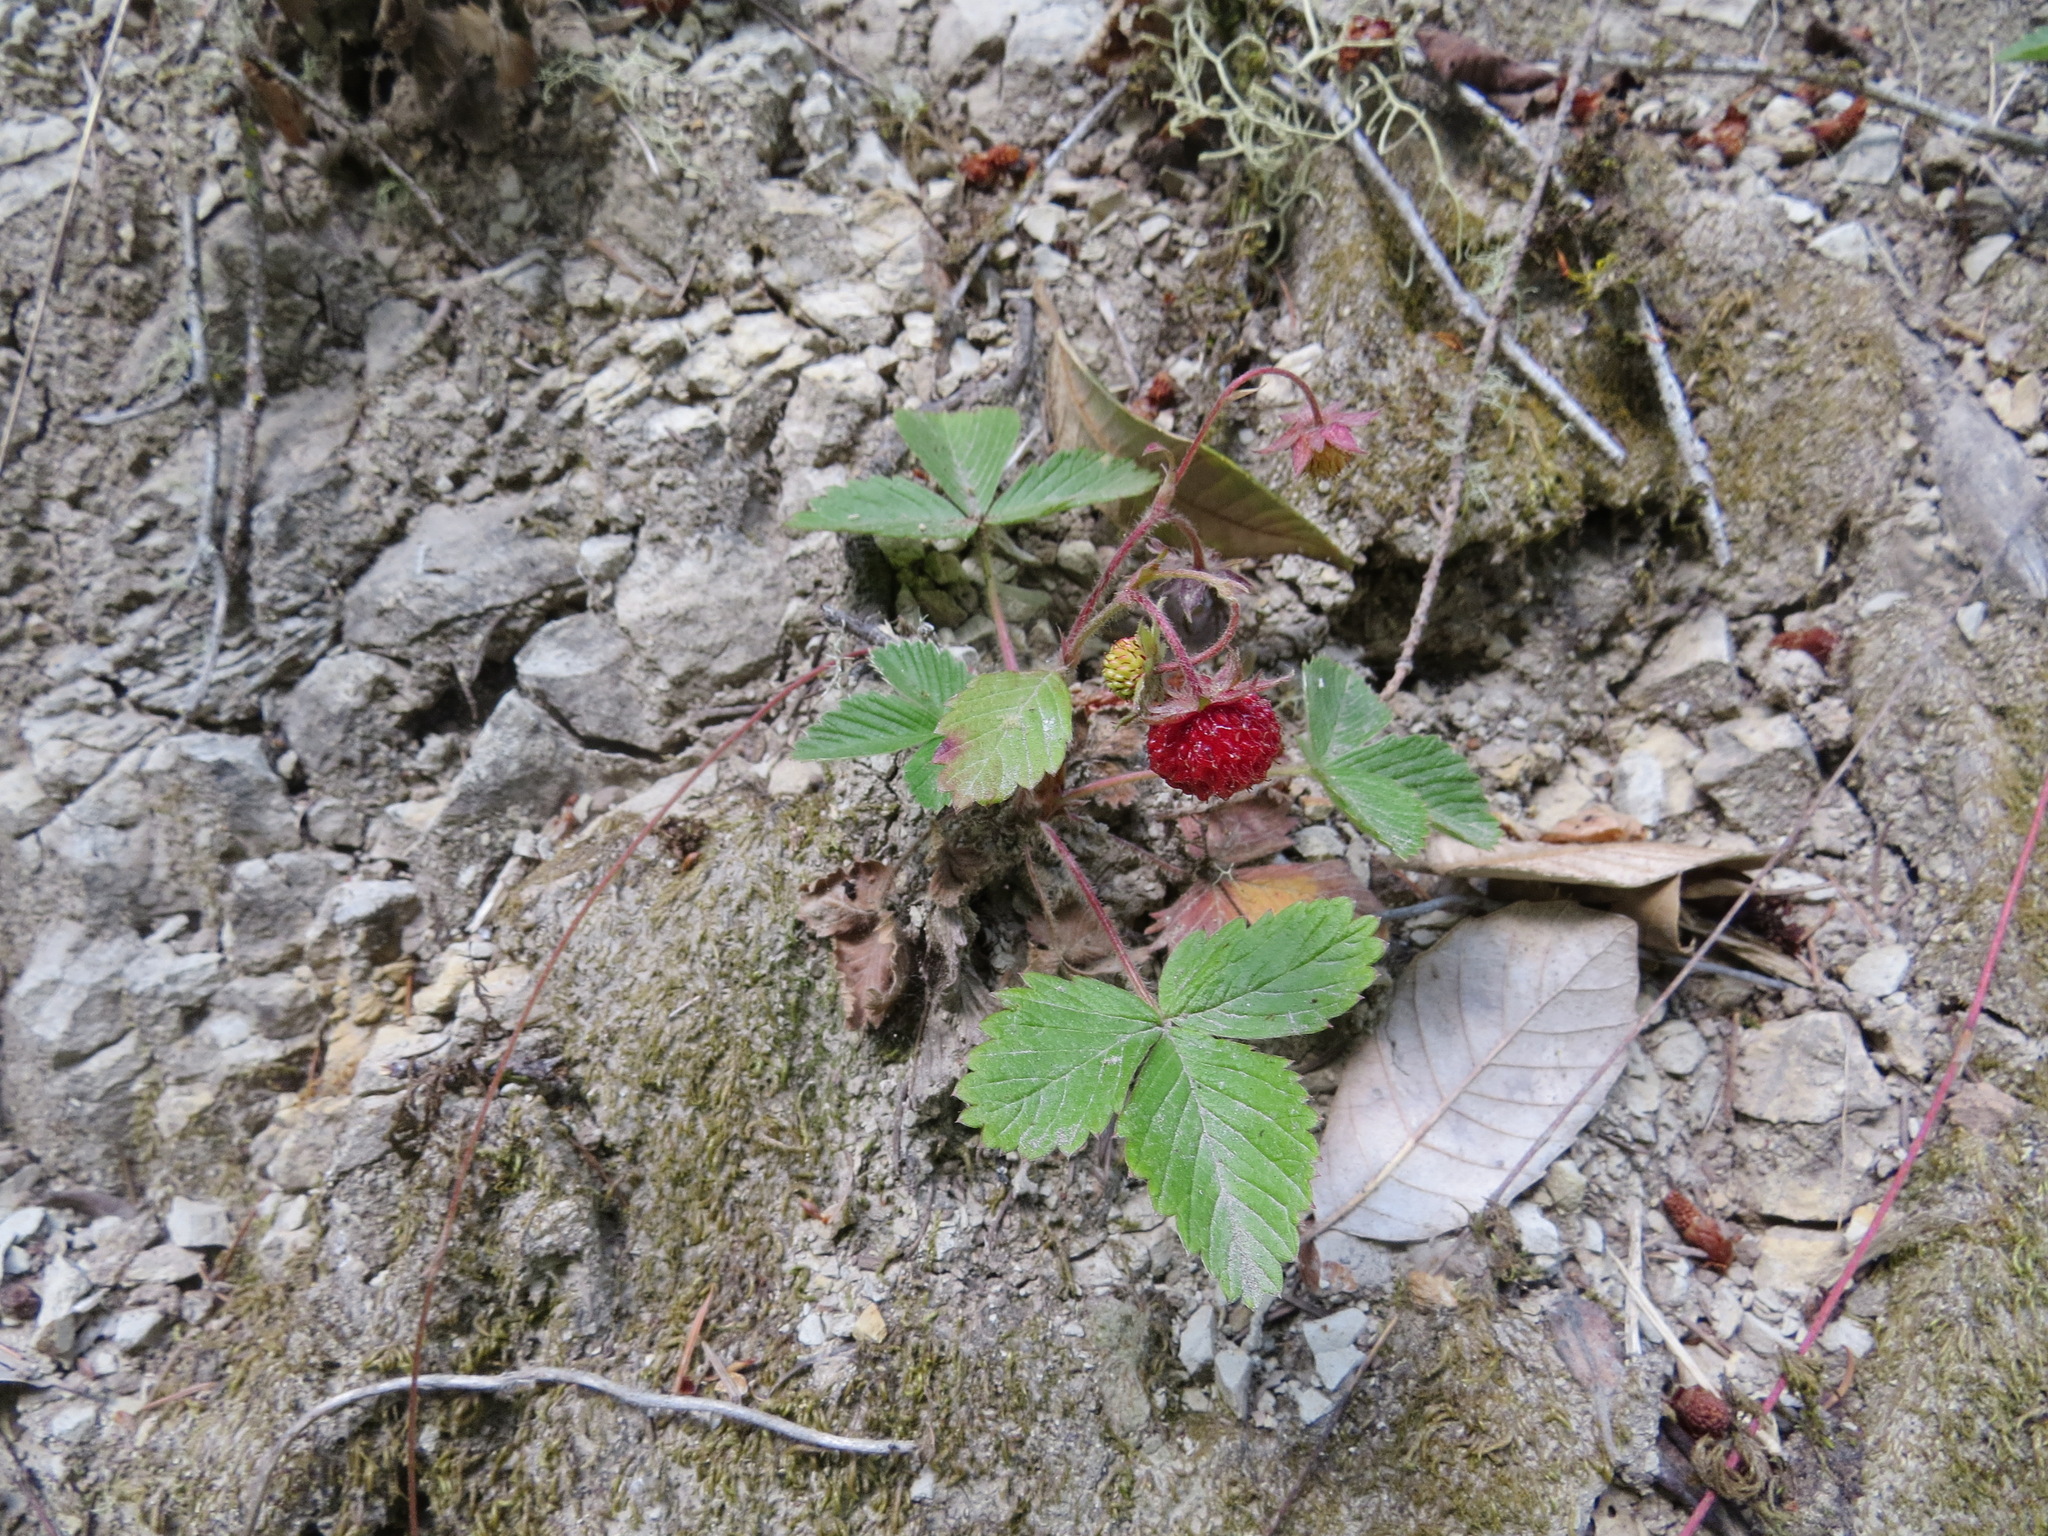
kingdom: Plantae
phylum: Tracheophyta
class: Magnoliopsida
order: Rosales
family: Rosaceae
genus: Fragaria
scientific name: Fragaria vesca
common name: Wild strawberry
